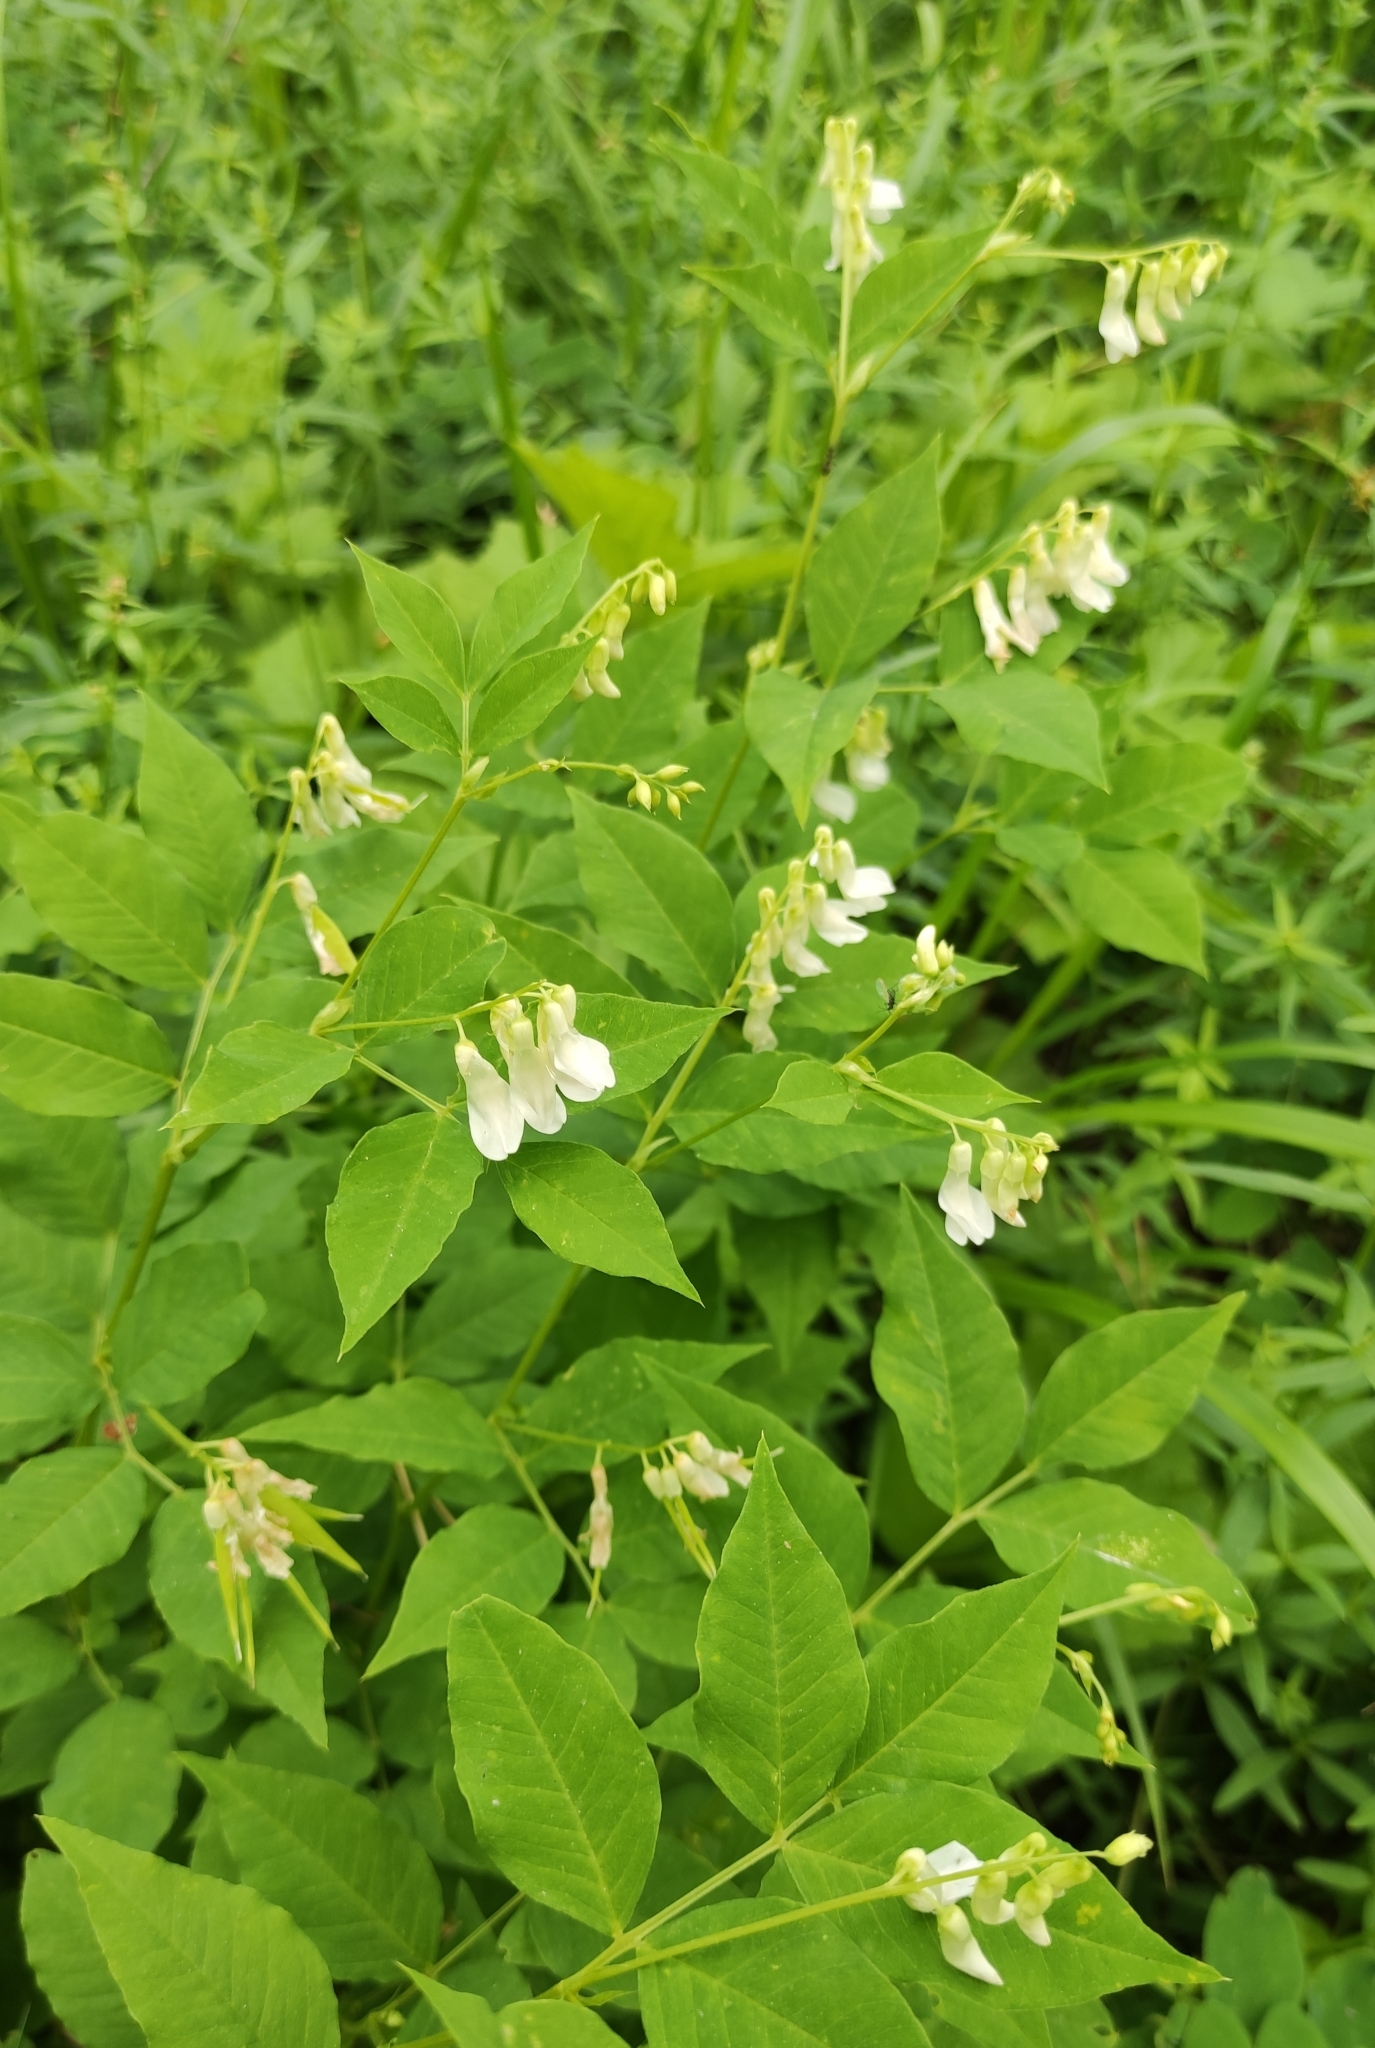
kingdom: Plantae
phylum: Tracheophyta
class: Magnoliopsida
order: Fabales
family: Fabaceae
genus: Vicia
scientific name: Vicia ramuliflora
